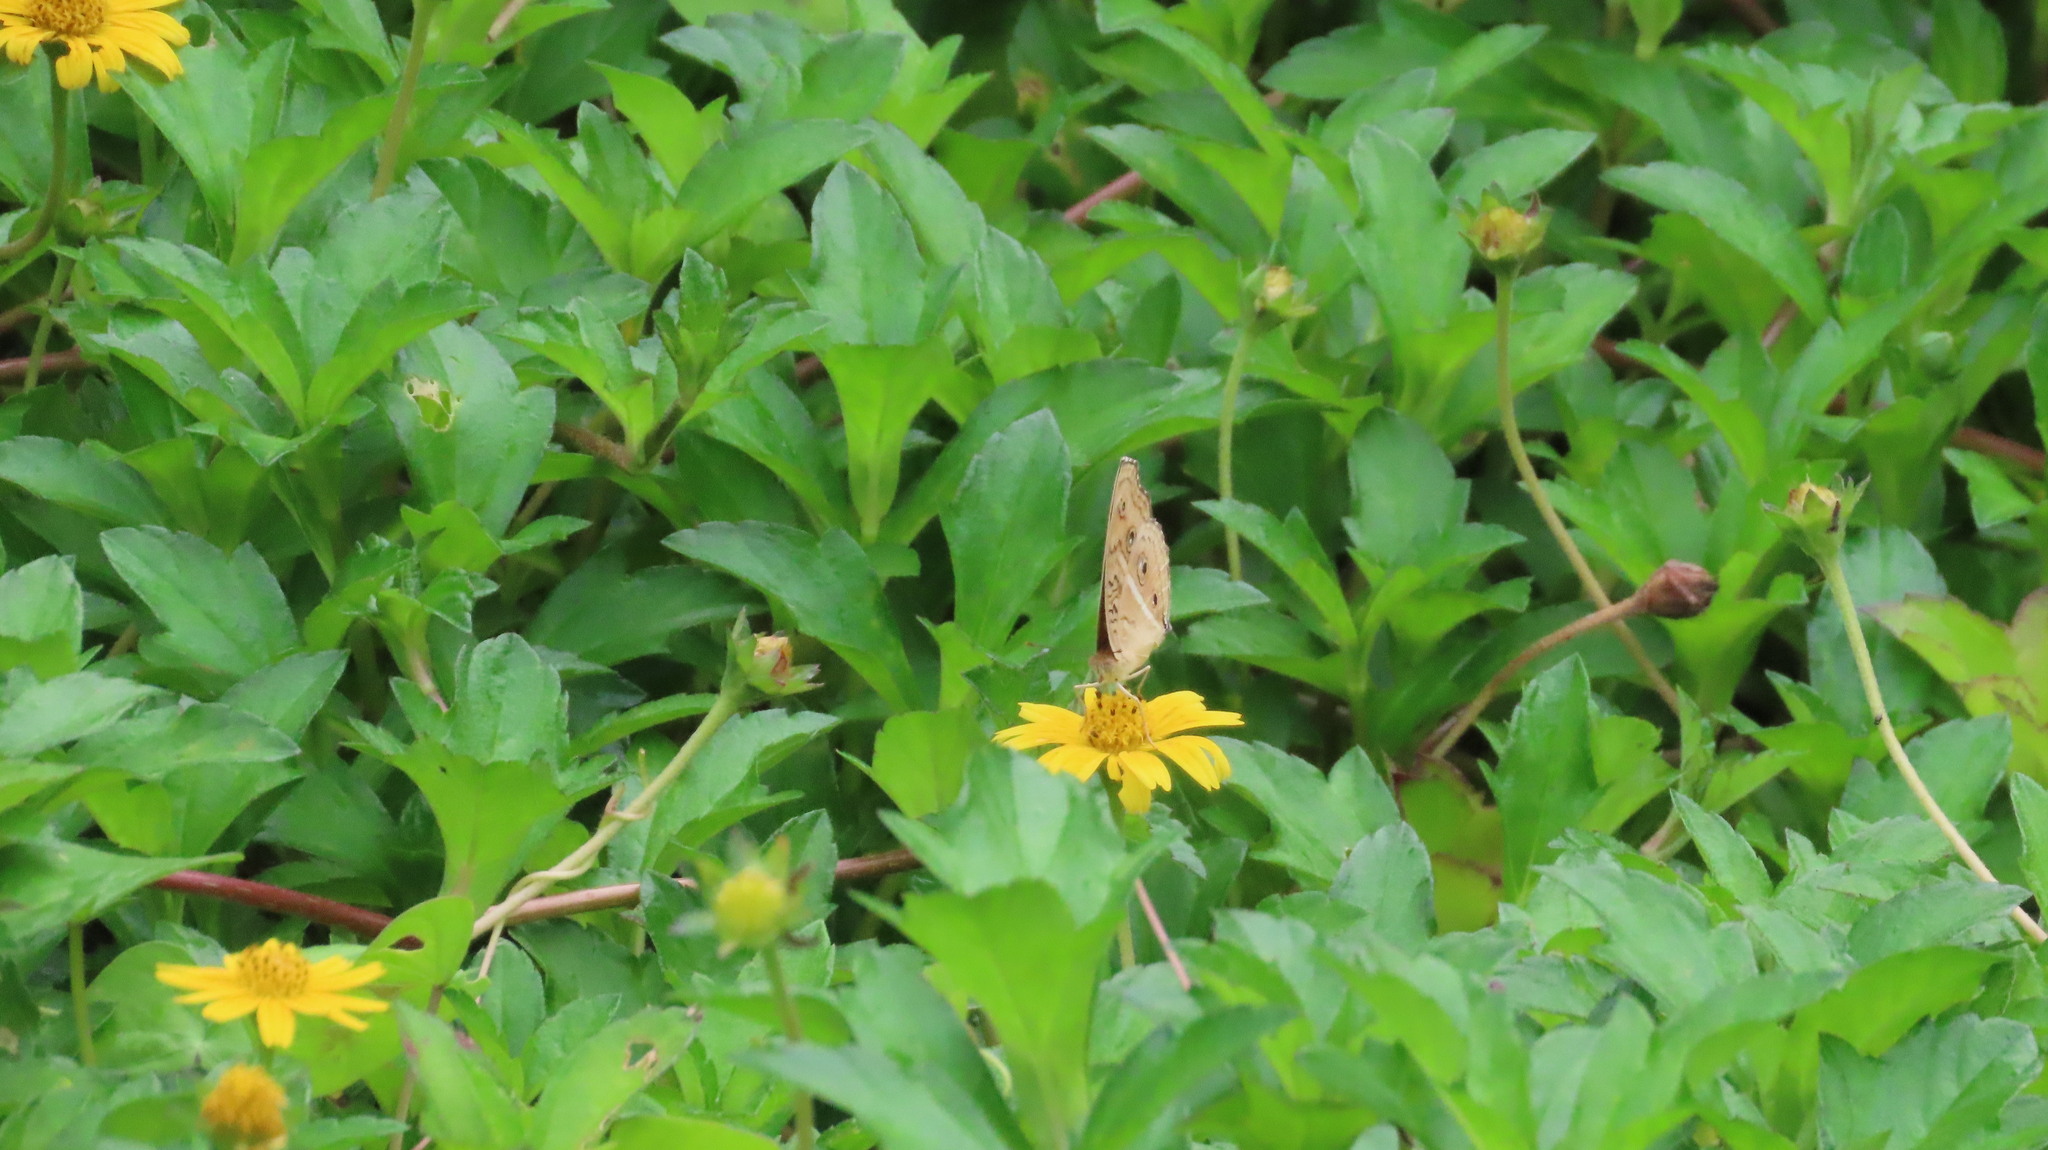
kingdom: Animalia
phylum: Arthropoda
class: Insecta
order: Lepidoptera
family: Nymphalidae
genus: Junonia
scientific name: Junonia almana
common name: Peacock pansy
